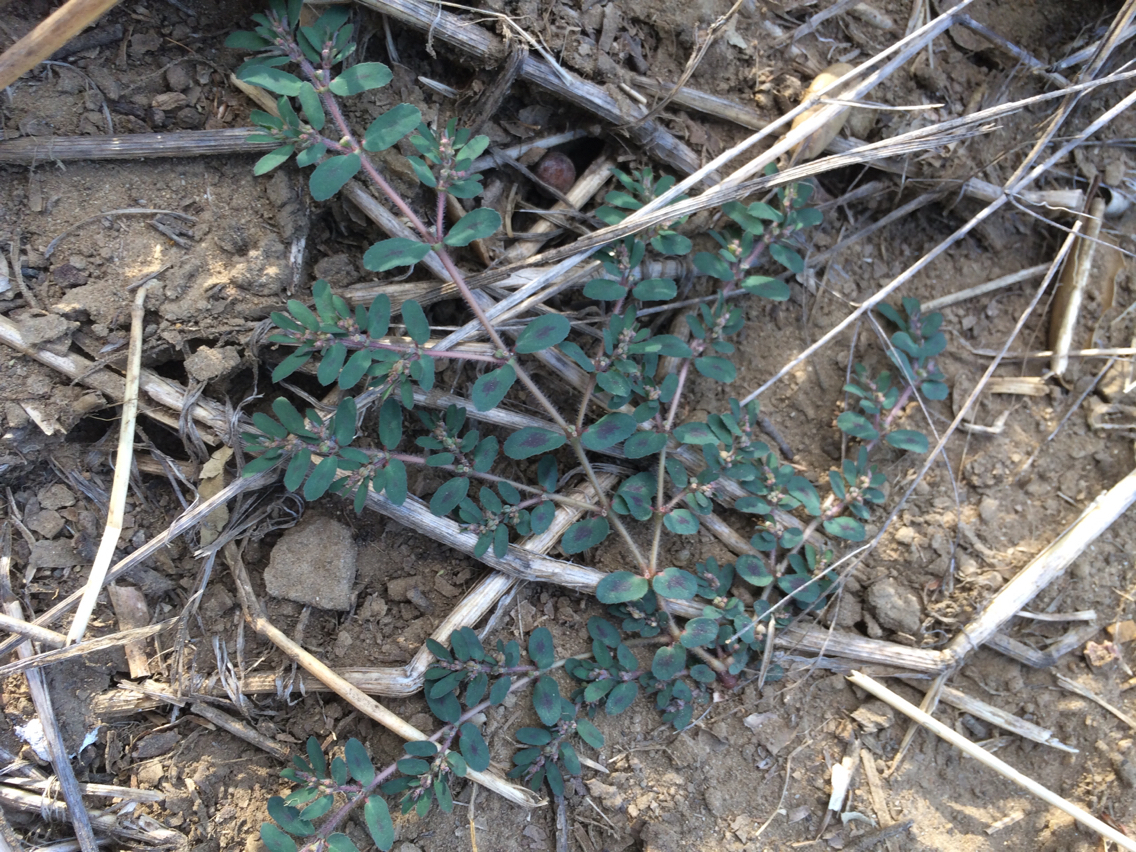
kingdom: Plantae
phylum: Tracheophyta
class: Magnoliopsida
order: Malpighiales
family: Euphorbiaceae
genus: Euphorbia
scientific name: Euphorbia maculata
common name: Spotted spurge
